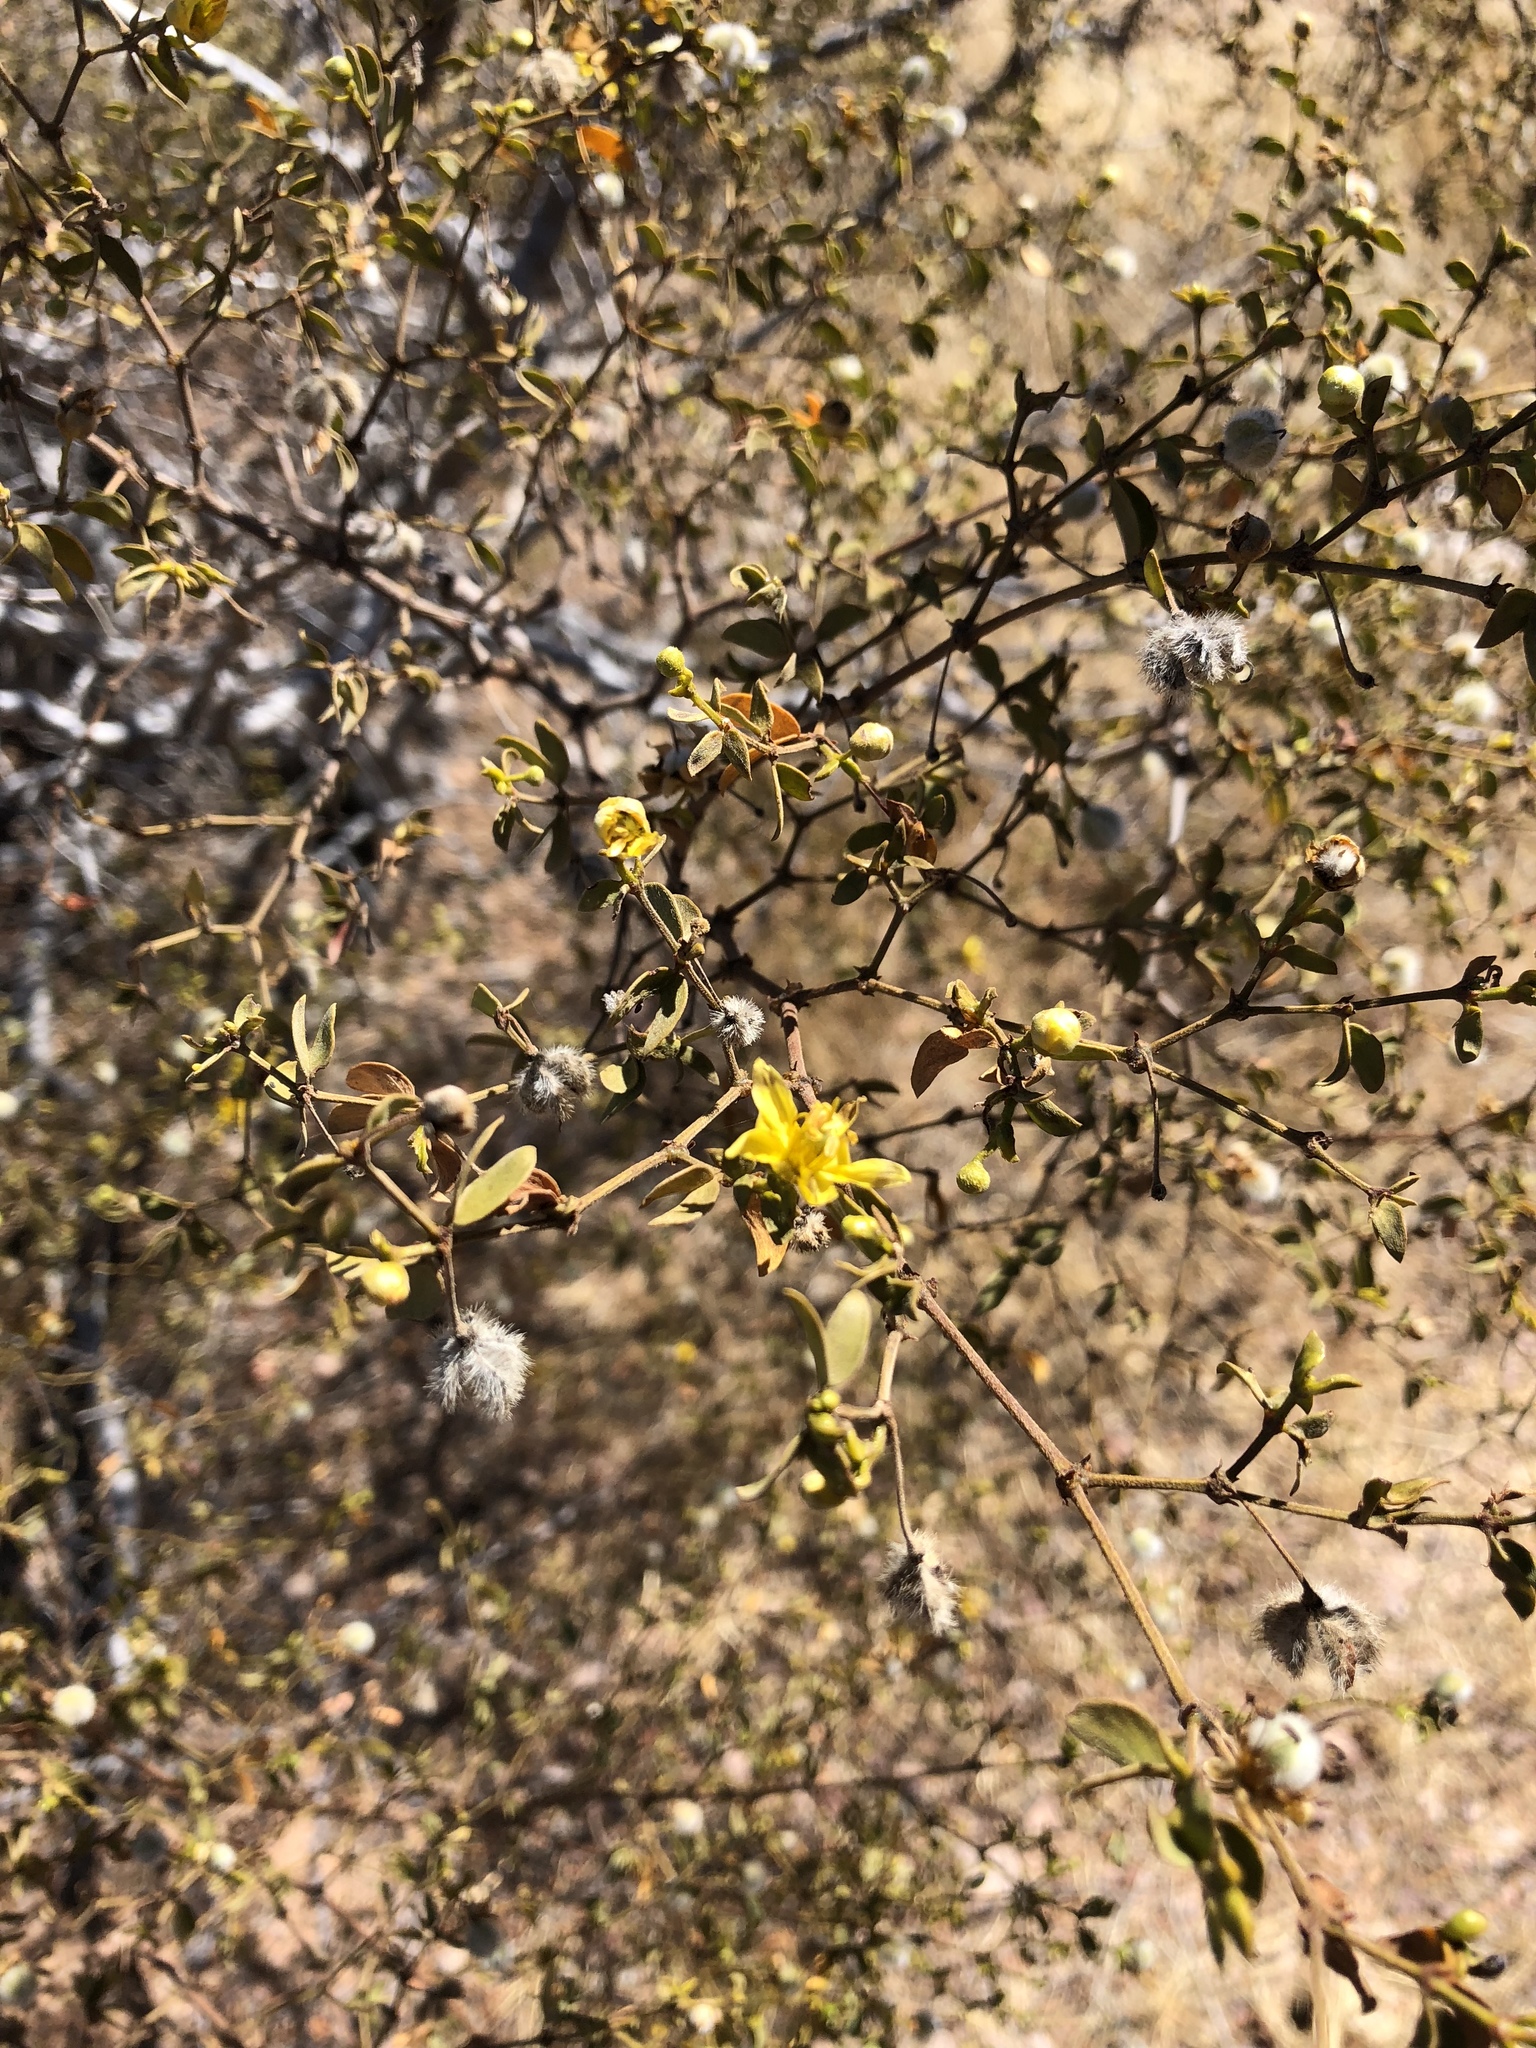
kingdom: Plantae
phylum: Tracheophyta
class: Magnoliopsida
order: Zygophyllales
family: Zygophyllaceae
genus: Larrea
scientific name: Larrea tridentata
